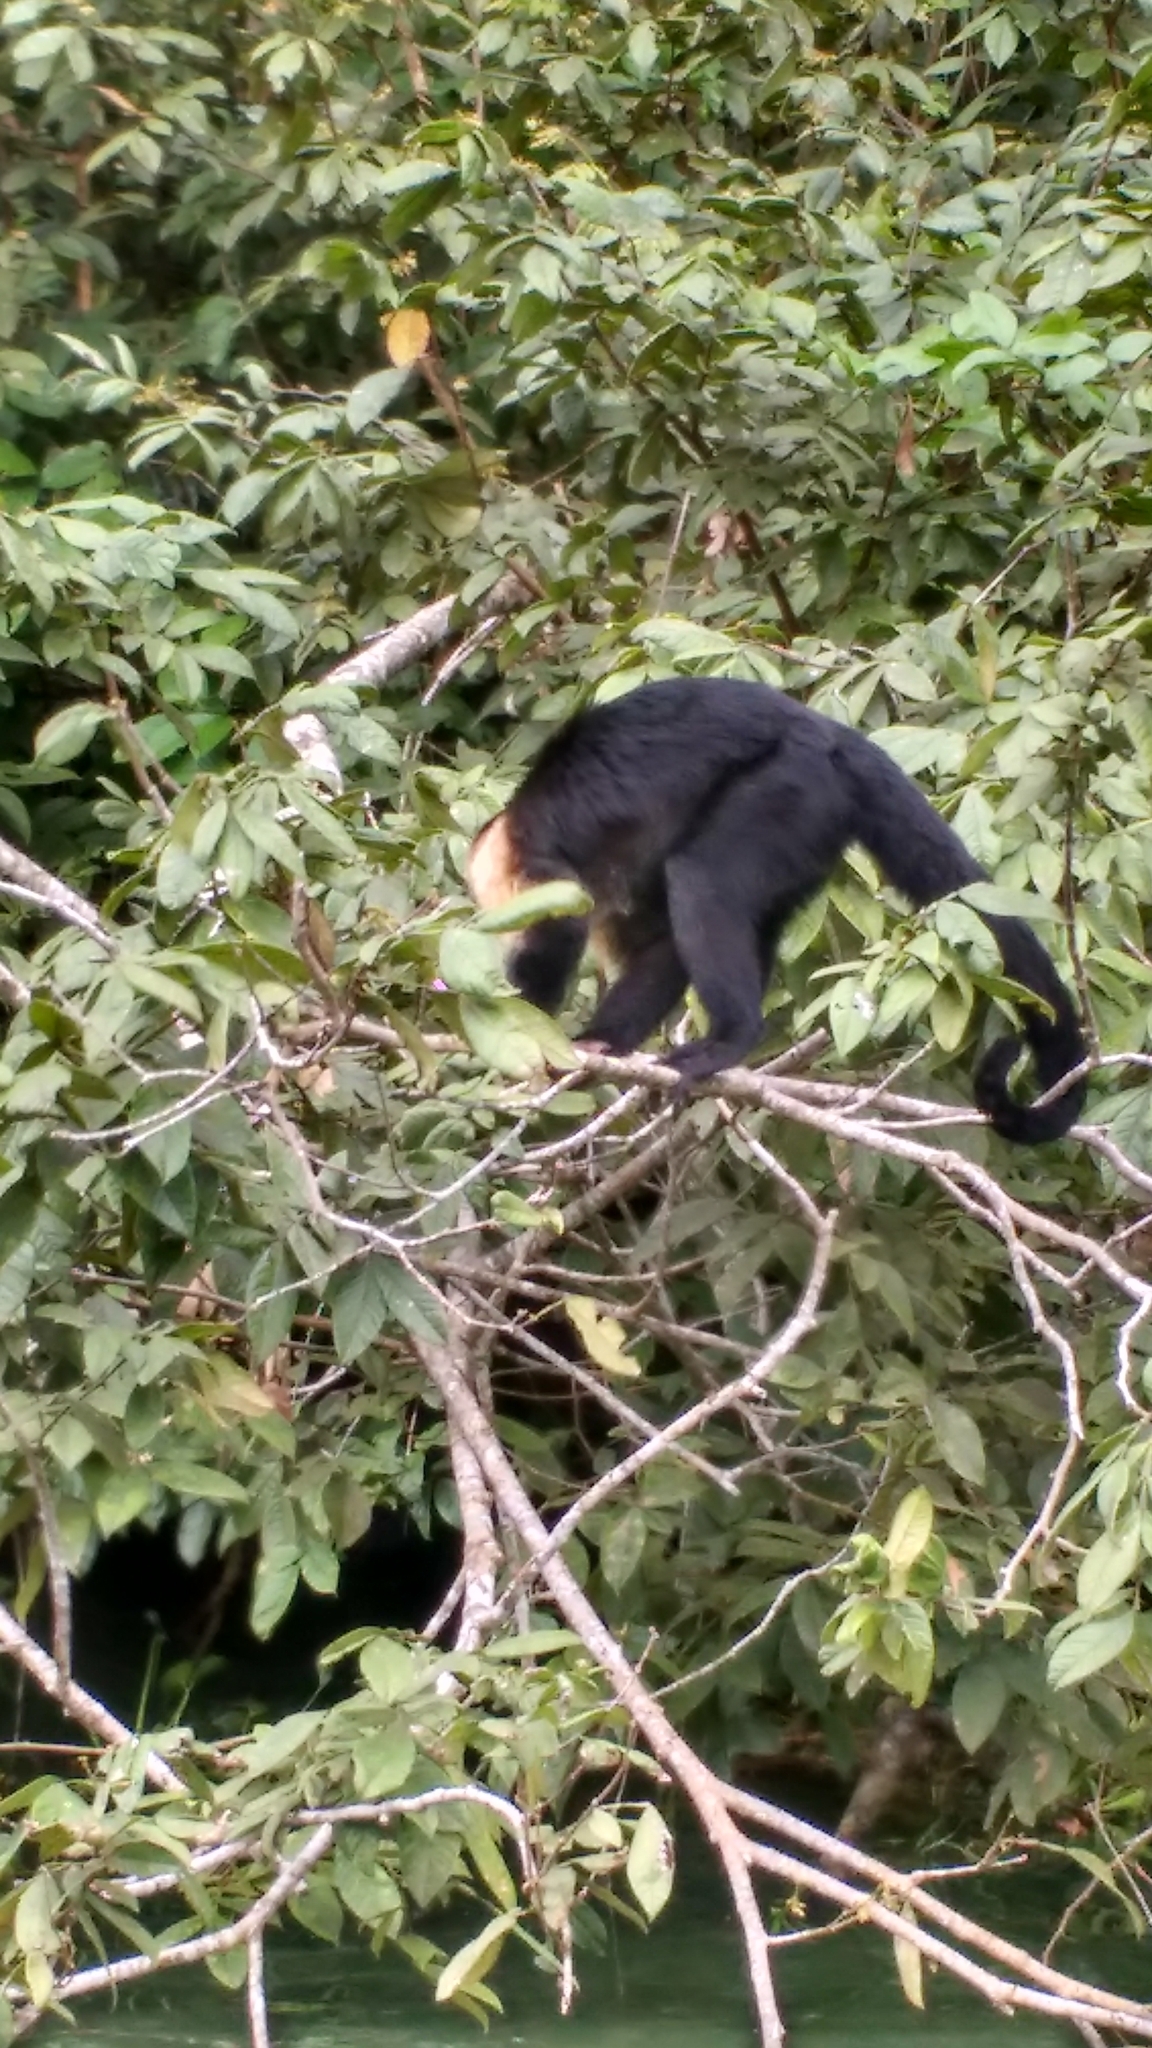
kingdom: Animalia
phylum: Chordata
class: Mammalia
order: Primates
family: Cebidae
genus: Cebus
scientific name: Cebus imitator
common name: Panamanian white-faced capuchin
